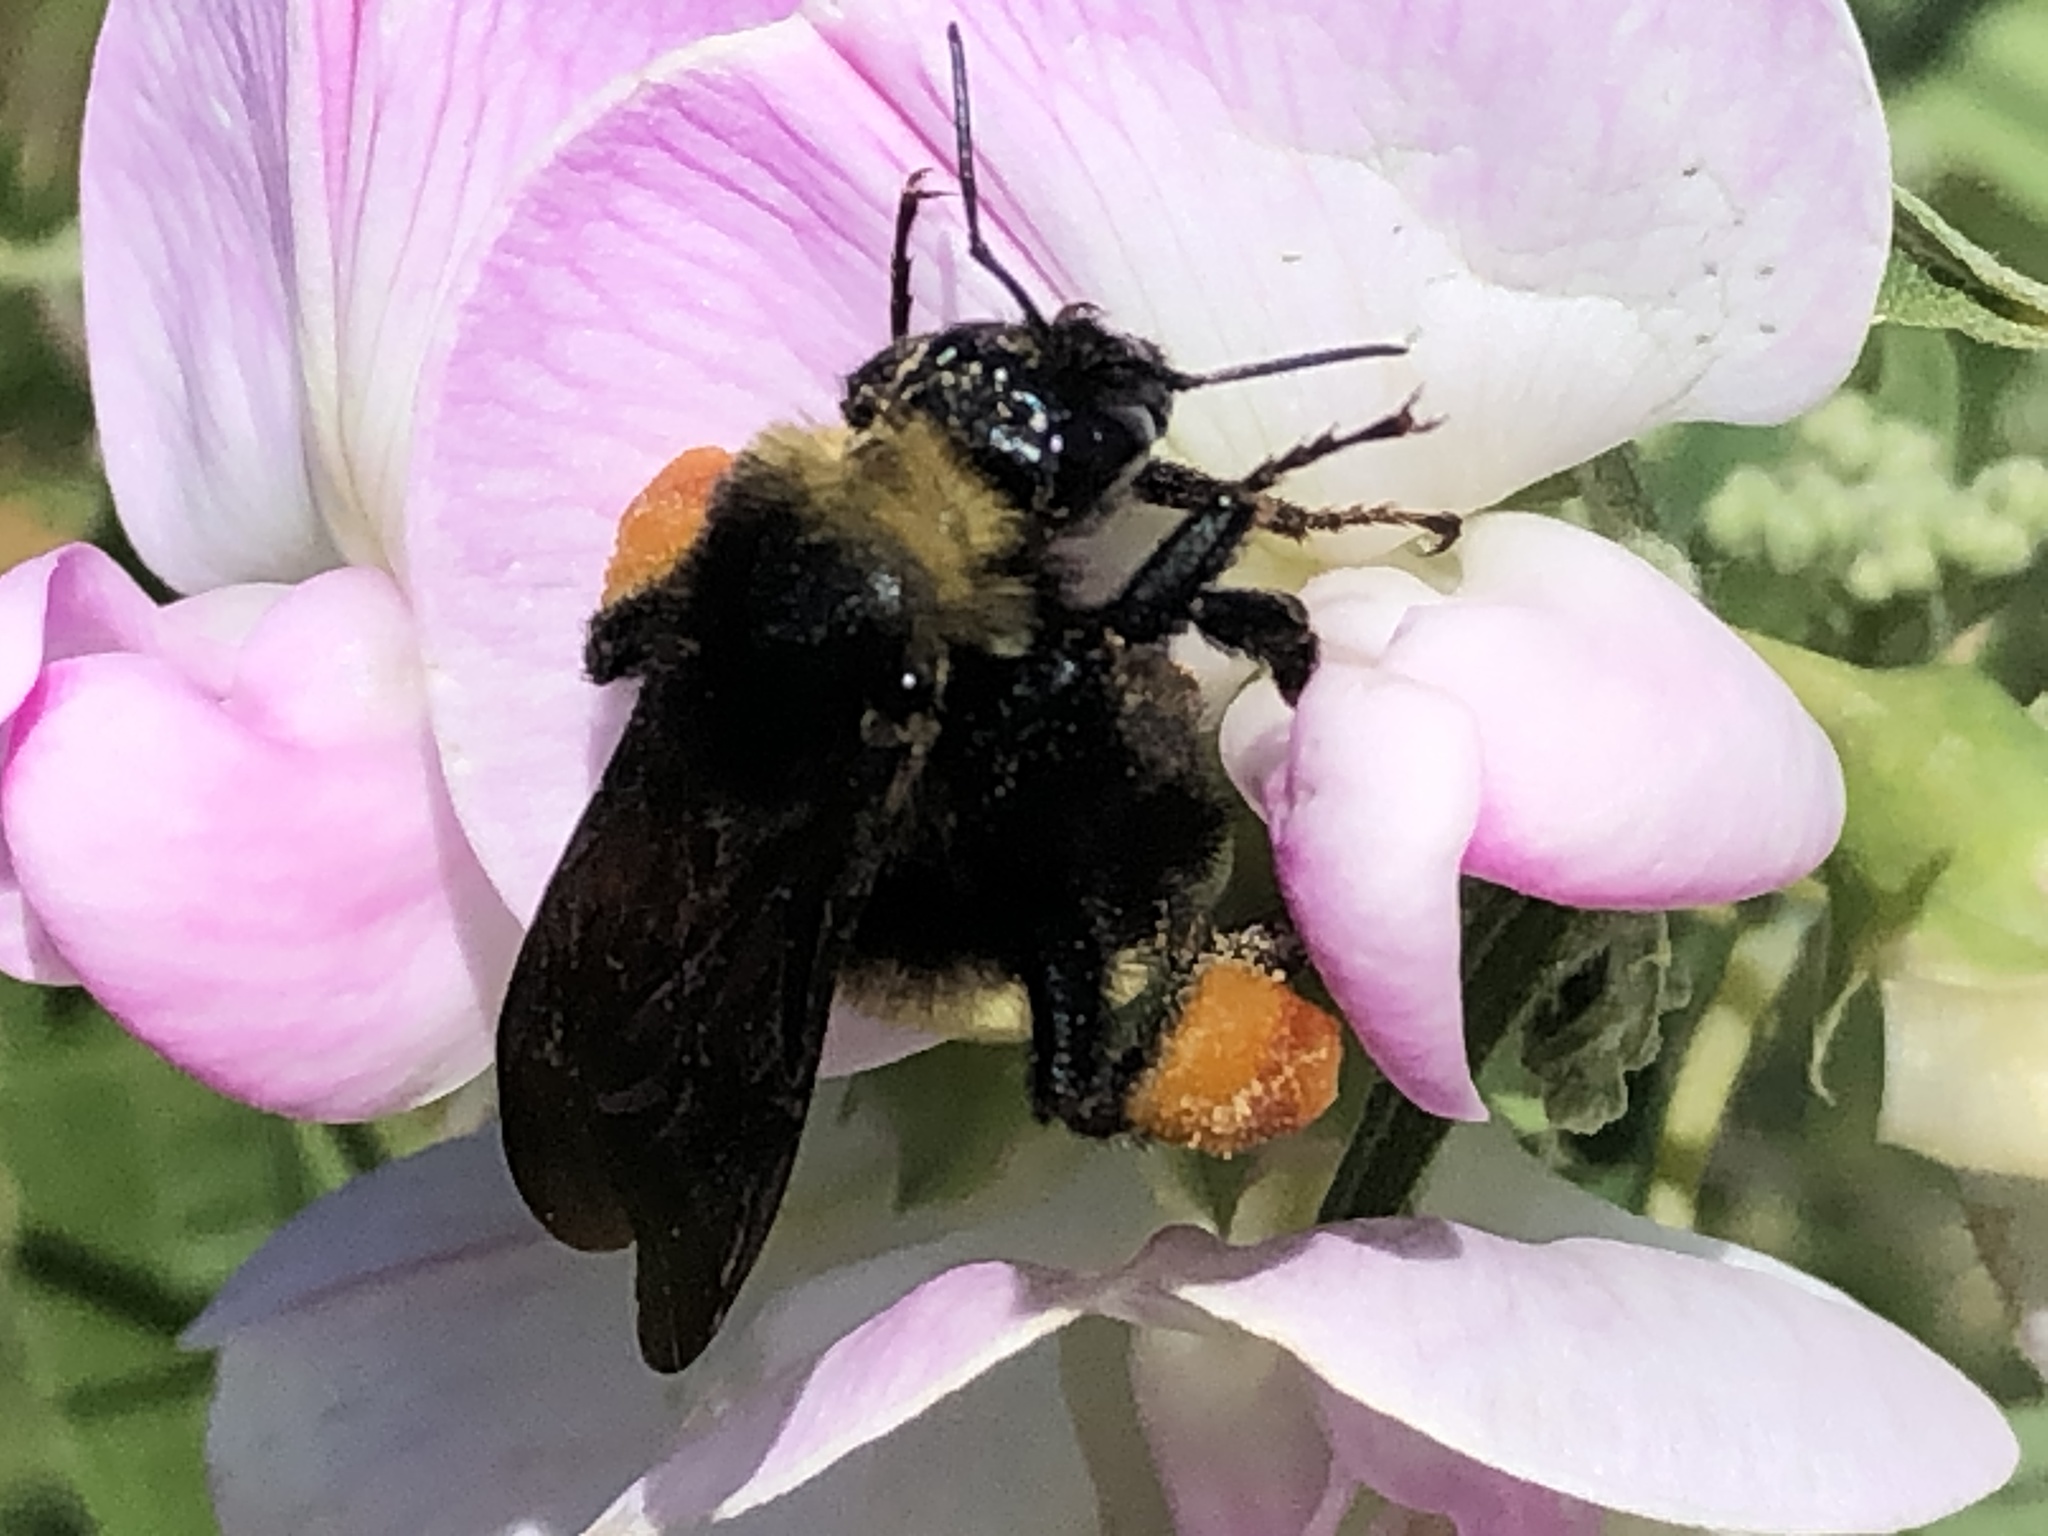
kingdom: Animalia
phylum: Arthropoda
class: Insecta
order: Hymenoptera
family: Apidae
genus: Bombus
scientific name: Bombus pensylvanicus
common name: Bumble bee
